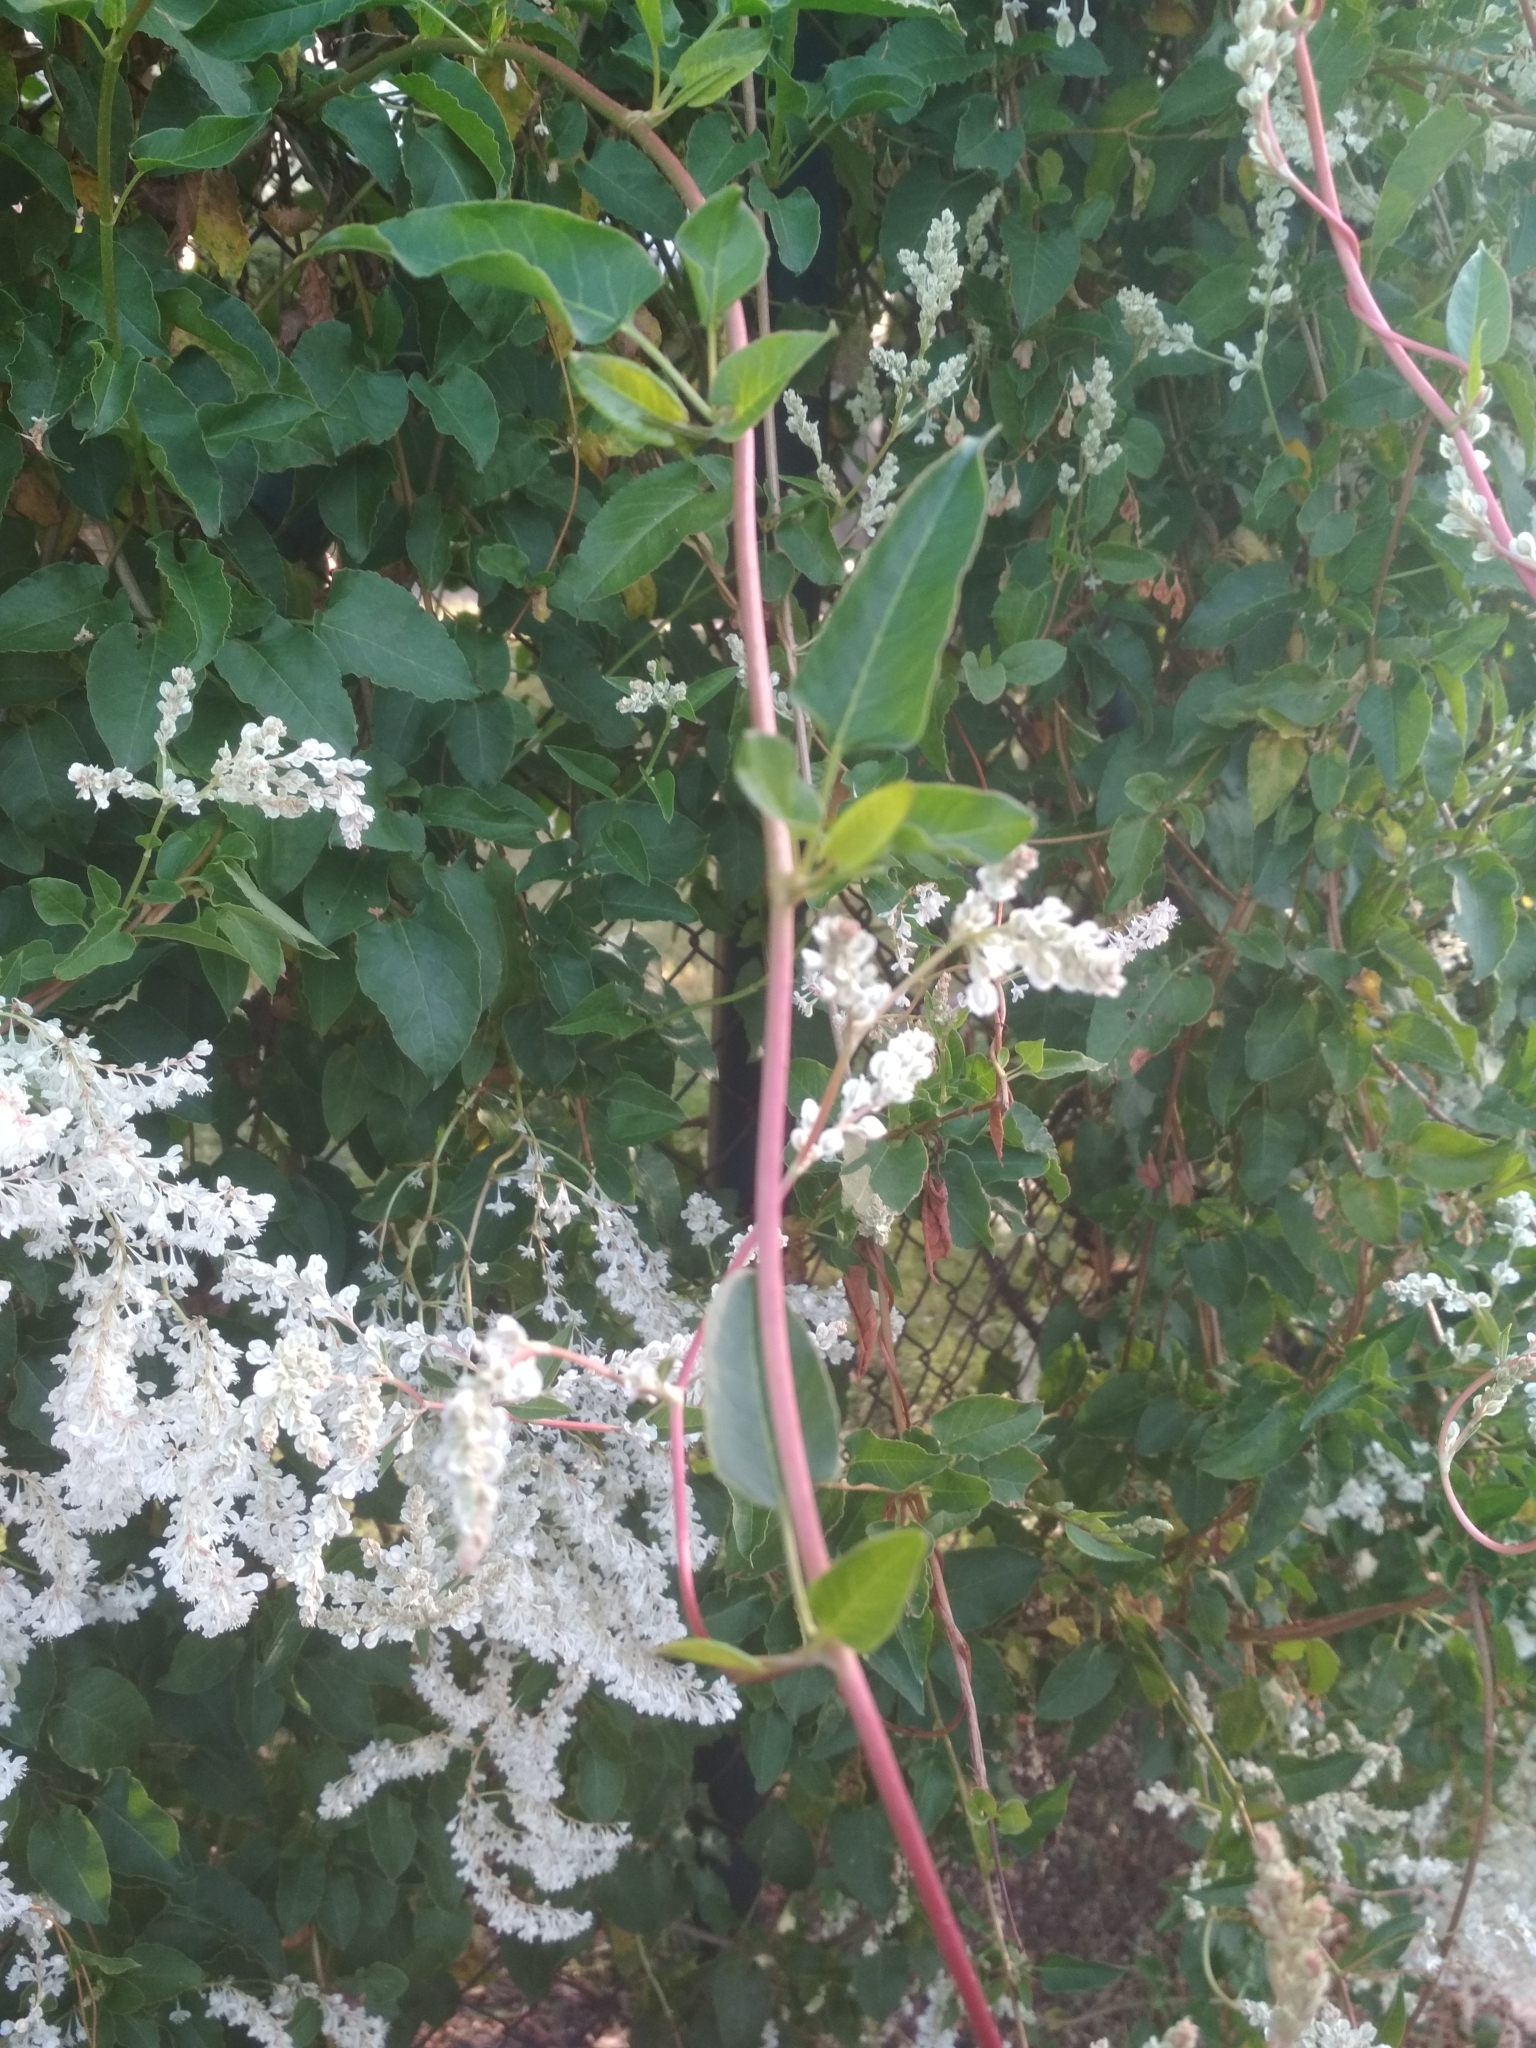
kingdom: Plantae
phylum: Tracheophyta
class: Magnoliopsida
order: Caryophyllales
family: Polygonaceae
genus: Fallopia
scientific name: Fallopia baldschuanica
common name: Russian-vine
